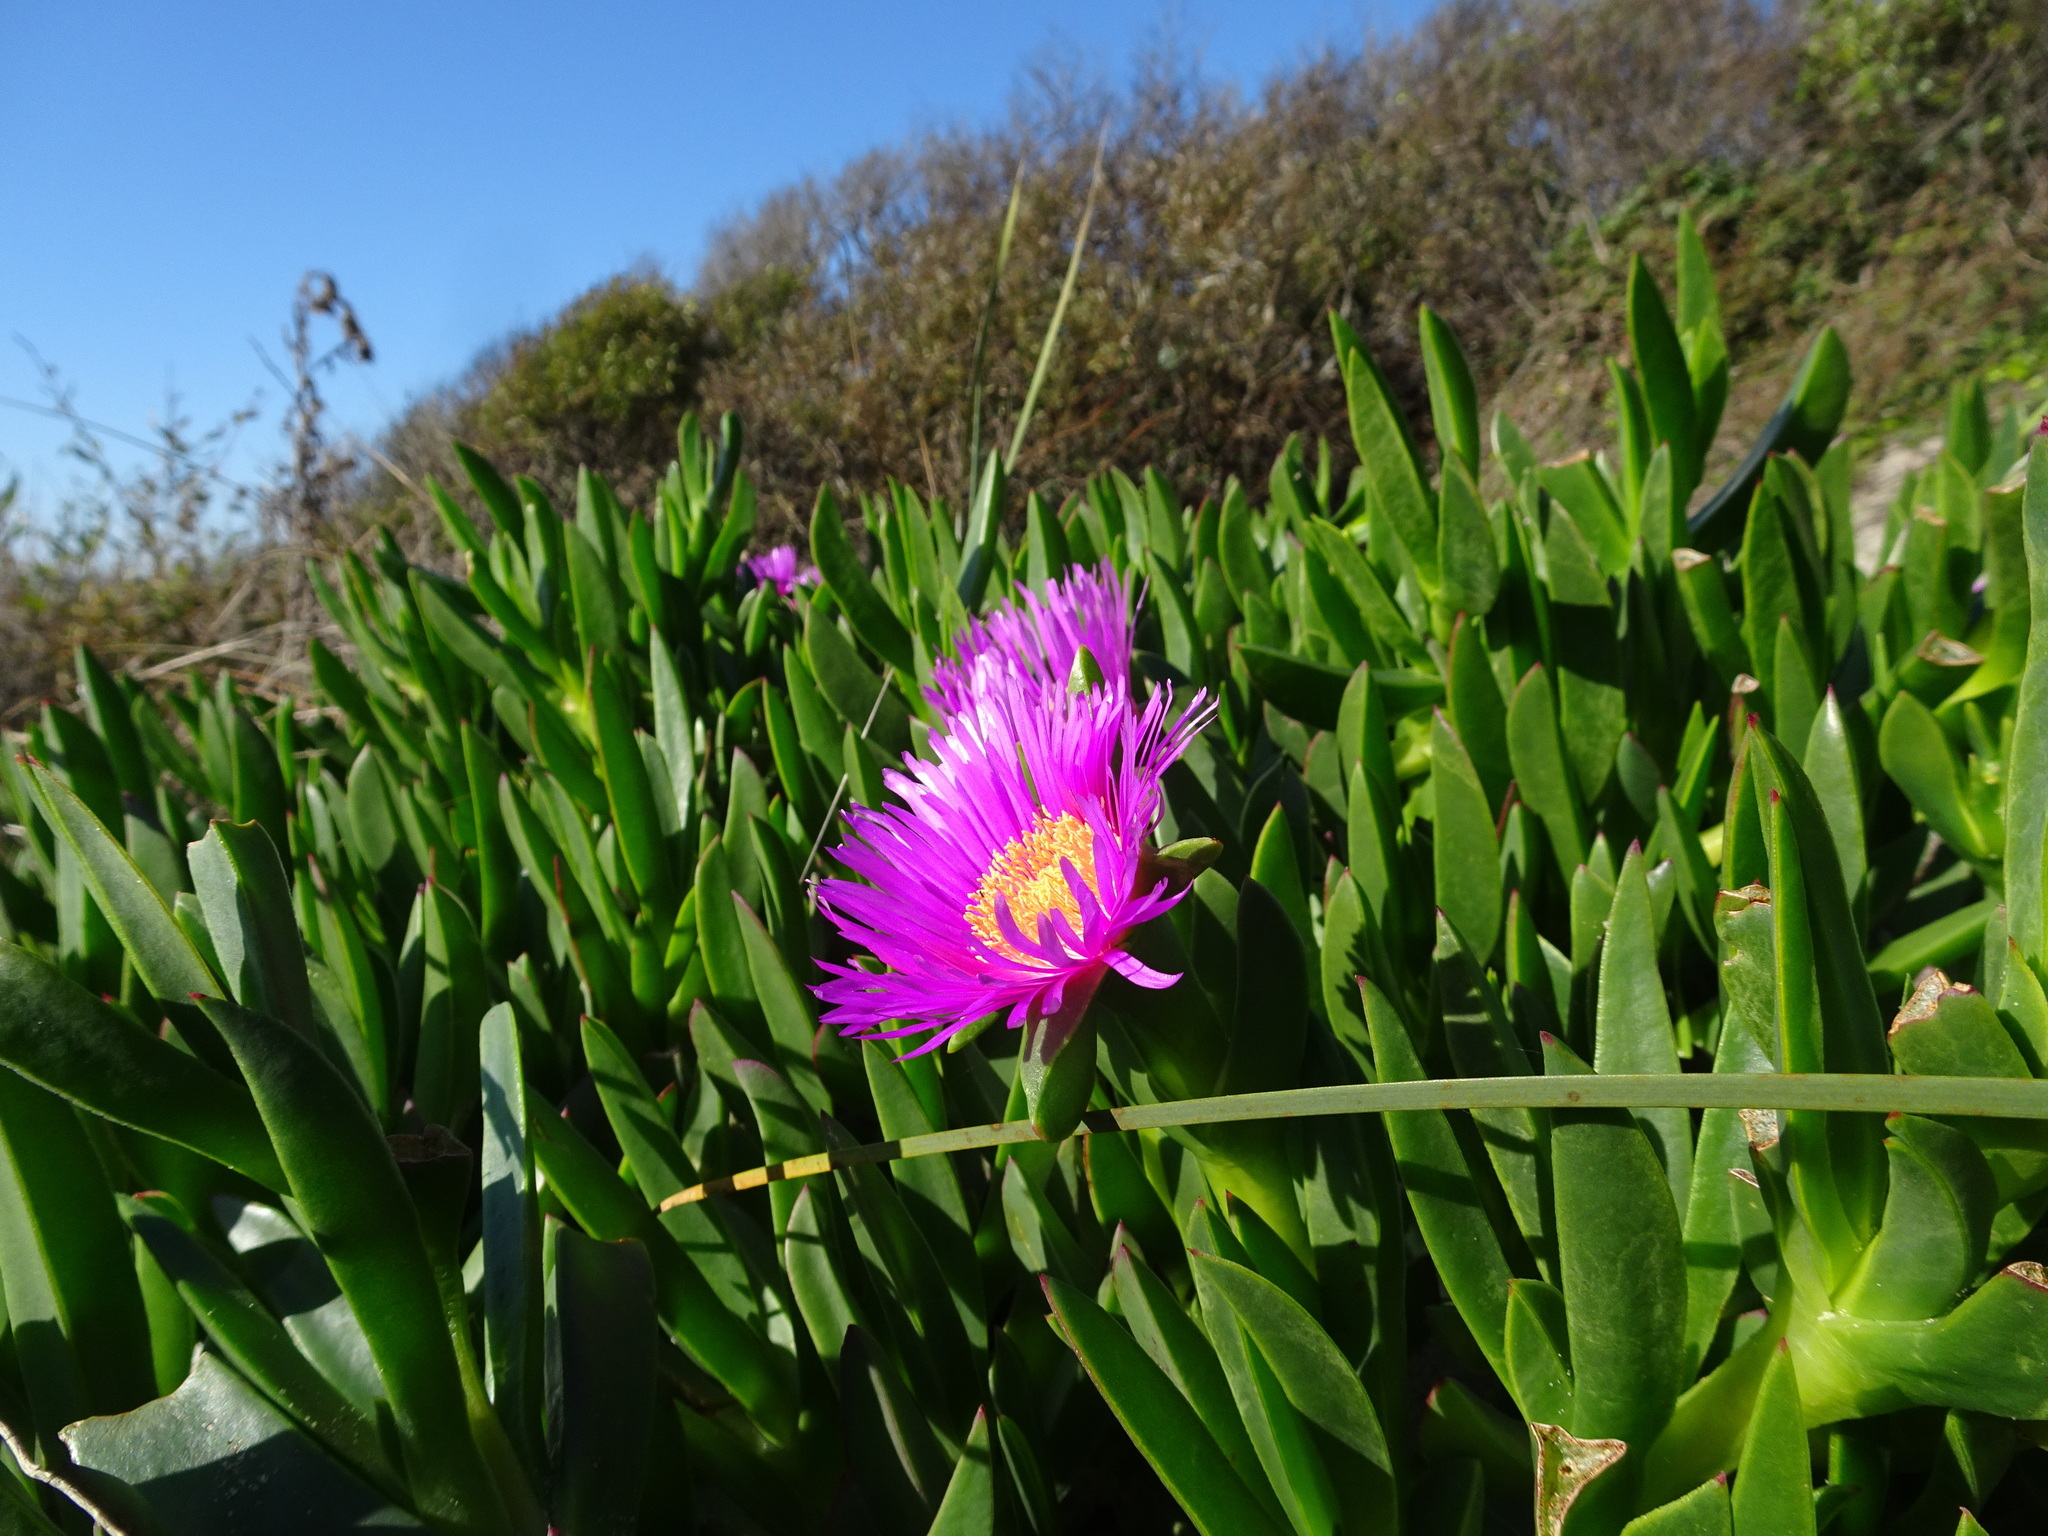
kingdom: Plantae
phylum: Tracheophyta
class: Magnoliopsida
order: Caryophyllales
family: Aizoaceae
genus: Carpobrotus
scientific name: Carpobrotus chilensis
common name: Sea fig
